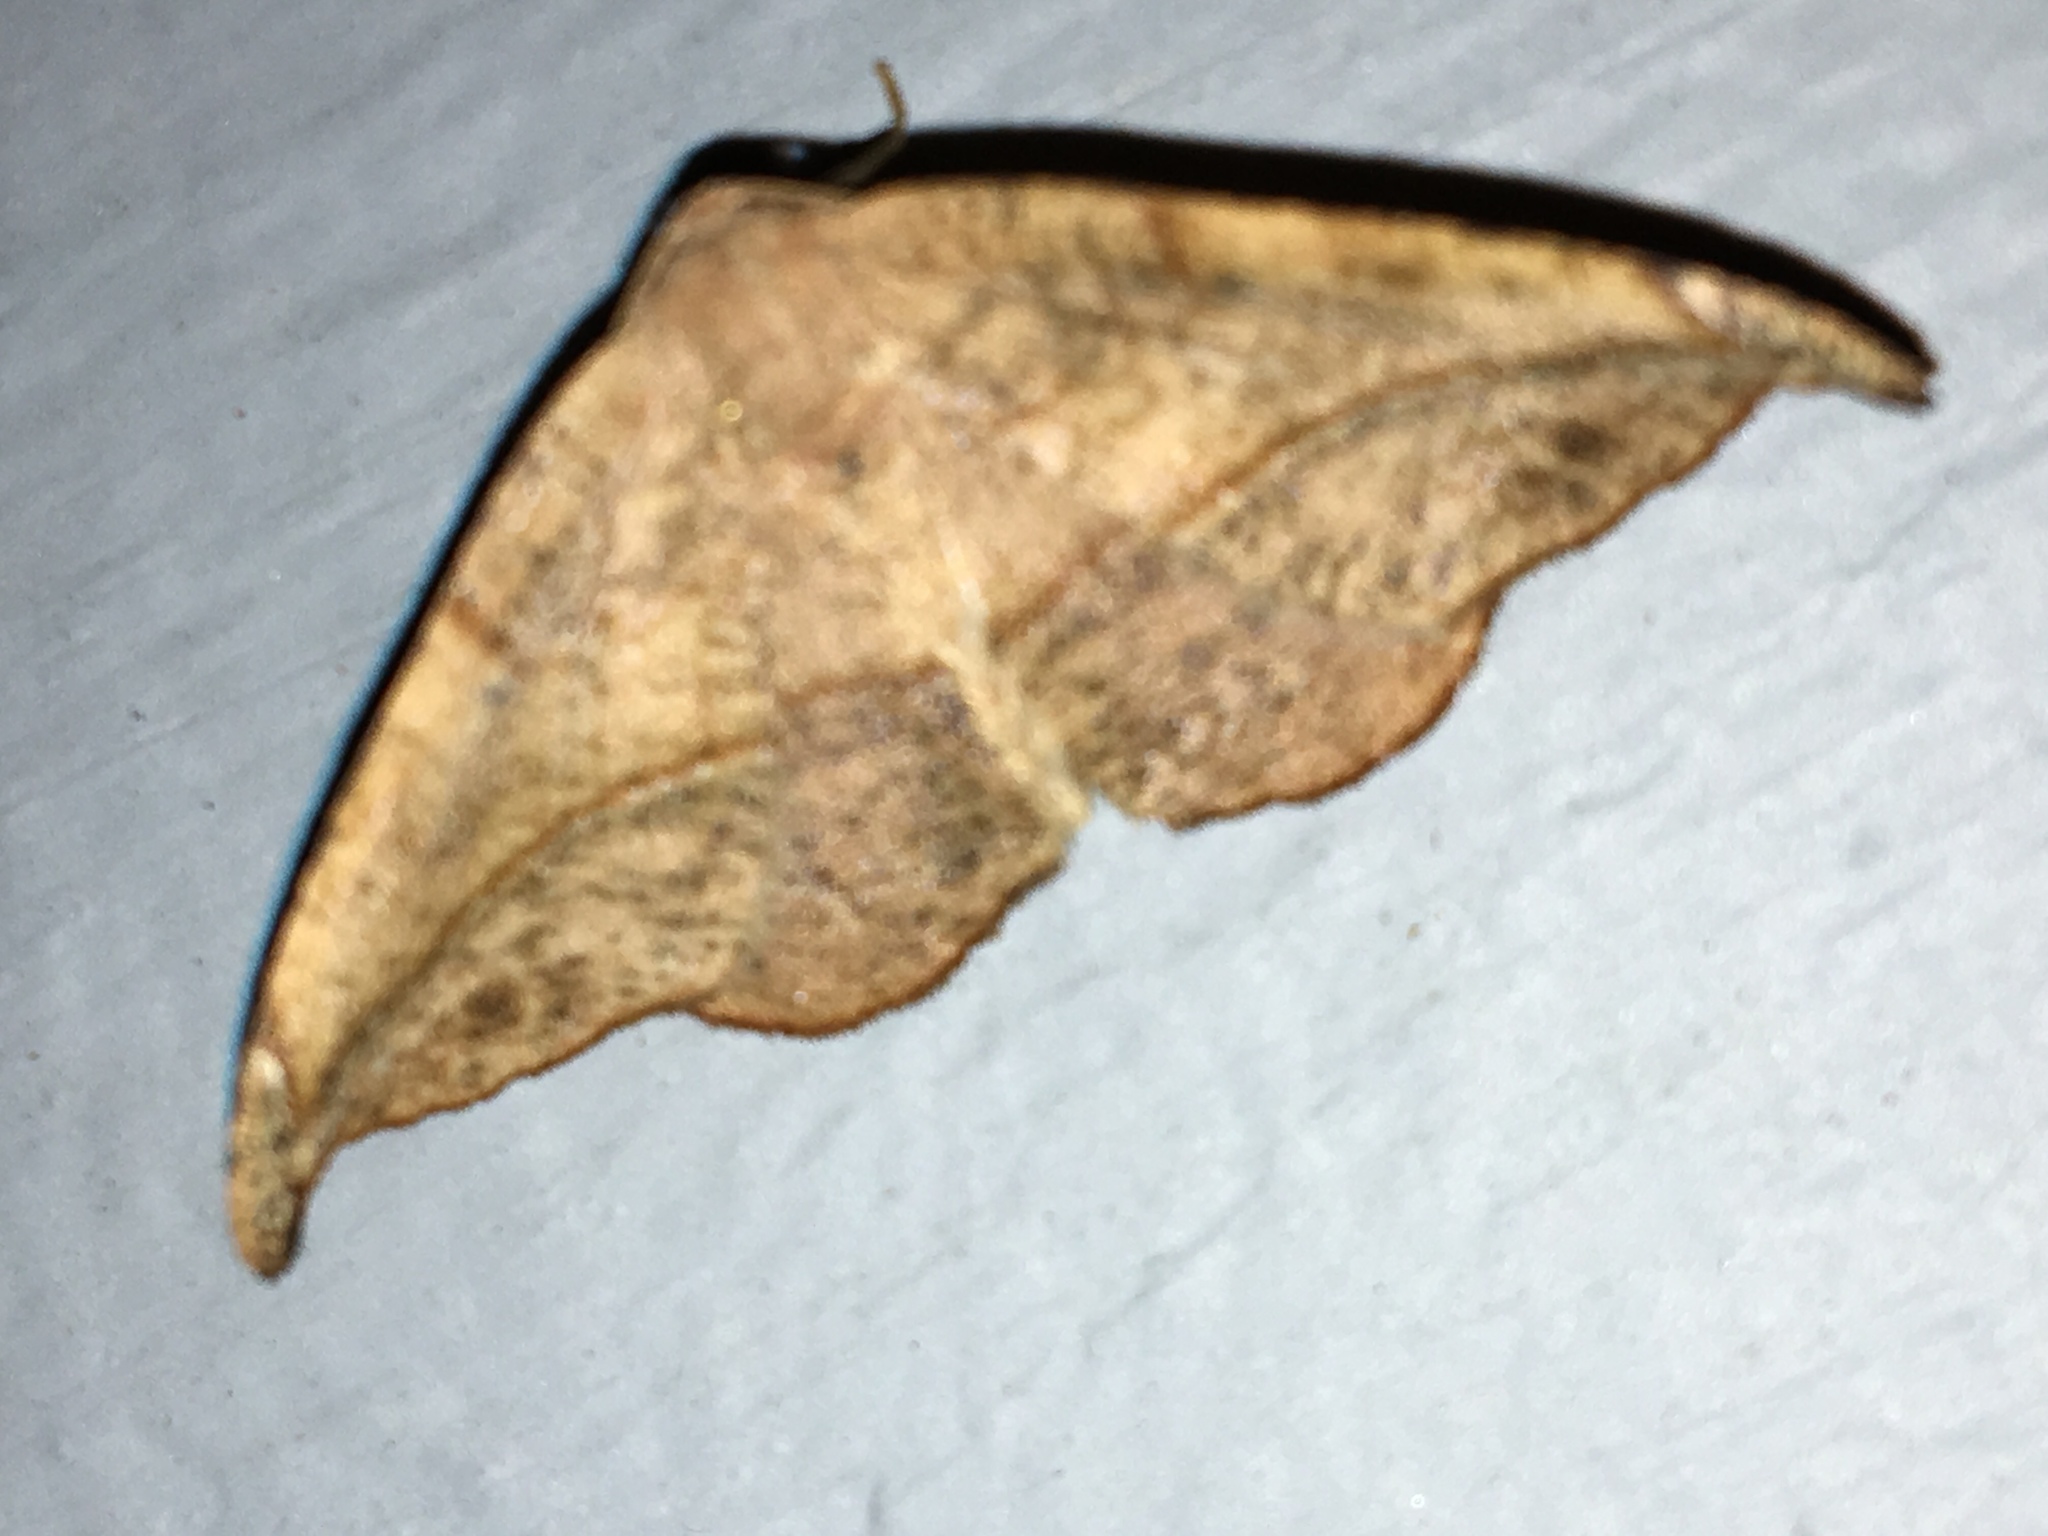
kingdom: Animalia
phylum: Arthropoda
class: Insecta
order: Lepidoptera
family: Geometridae
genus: Patalene
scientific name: Patalene olyzonaria
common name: Juniper geometer moth
